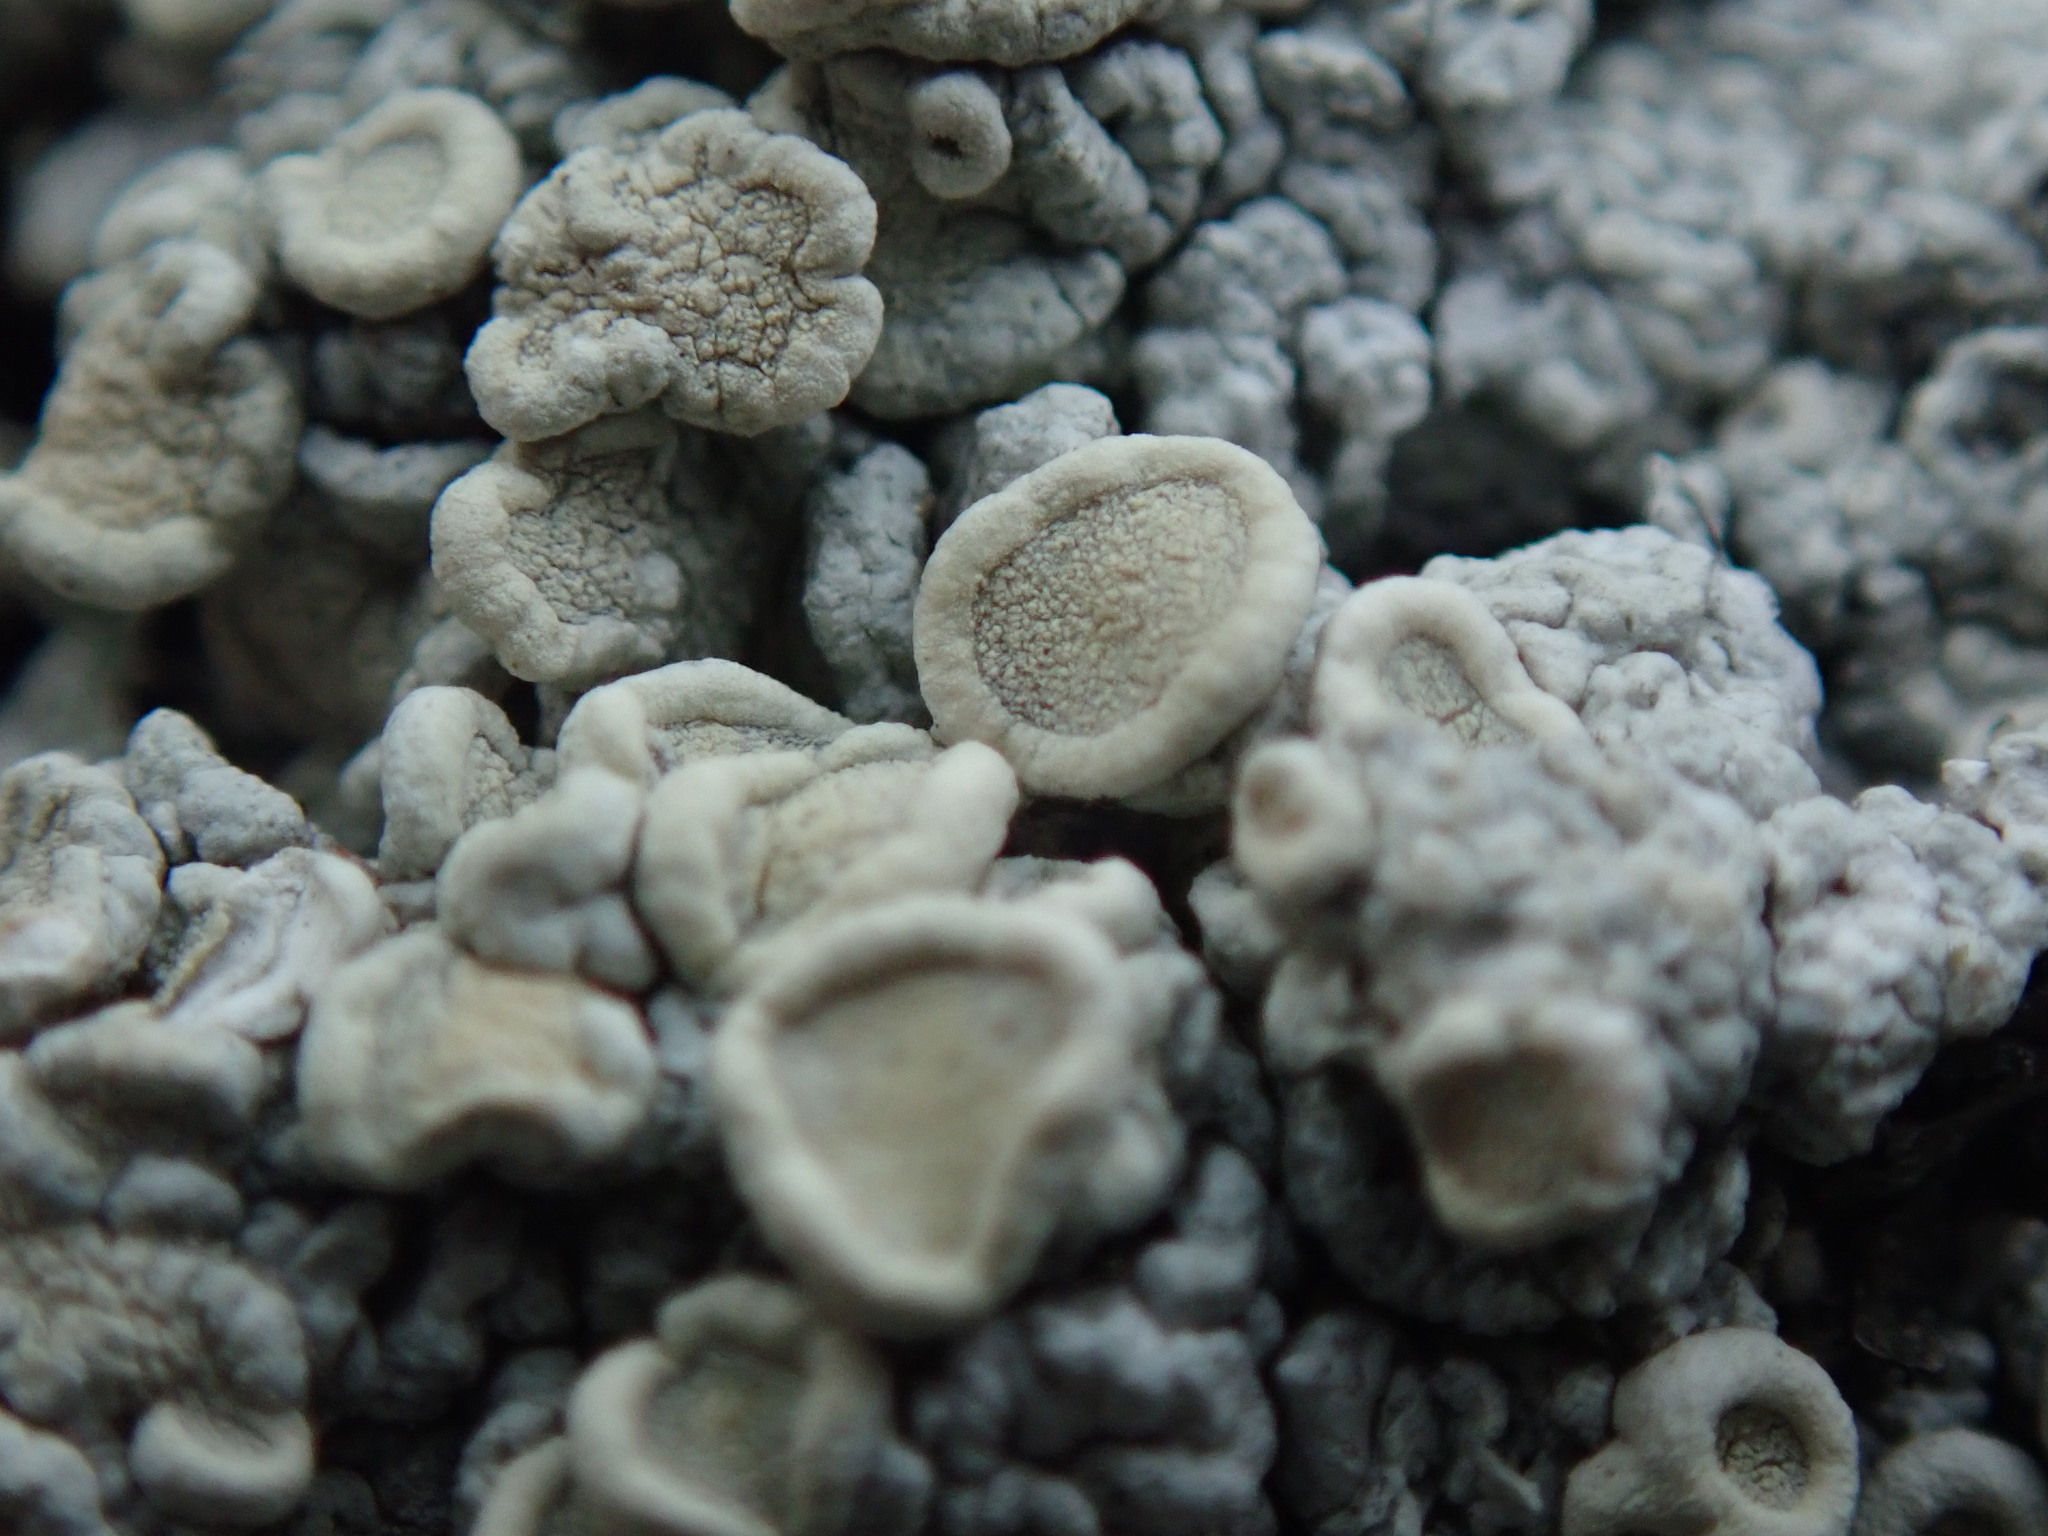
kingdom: Fungi
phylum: Ascomycota
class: Lecanoromycetes
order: Pertusariales
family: Ochrolechiaceae
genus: Ochrolechia
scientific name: Ochrolechia farinacea
